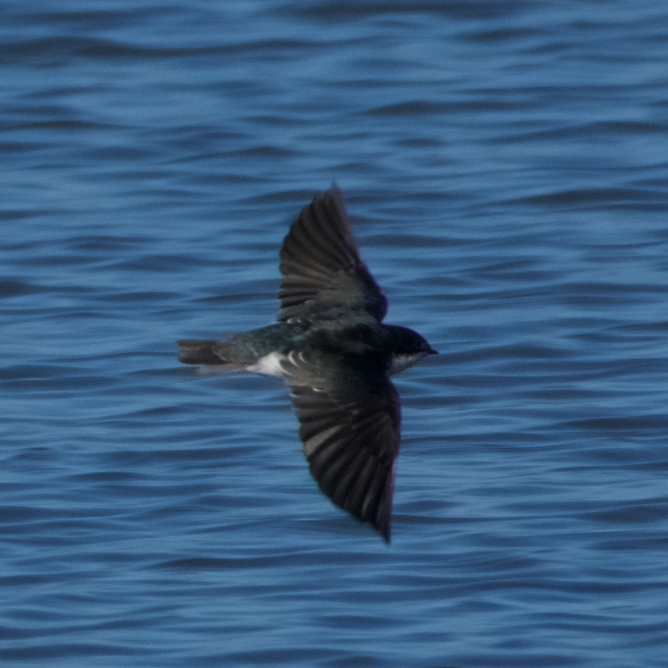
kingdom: Animalia
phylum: Chordata
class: Aves
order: Passeriformes
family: Hirundinidae
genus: Tachycineta
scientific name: Tachycineta bicolor
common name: Tree swallow
